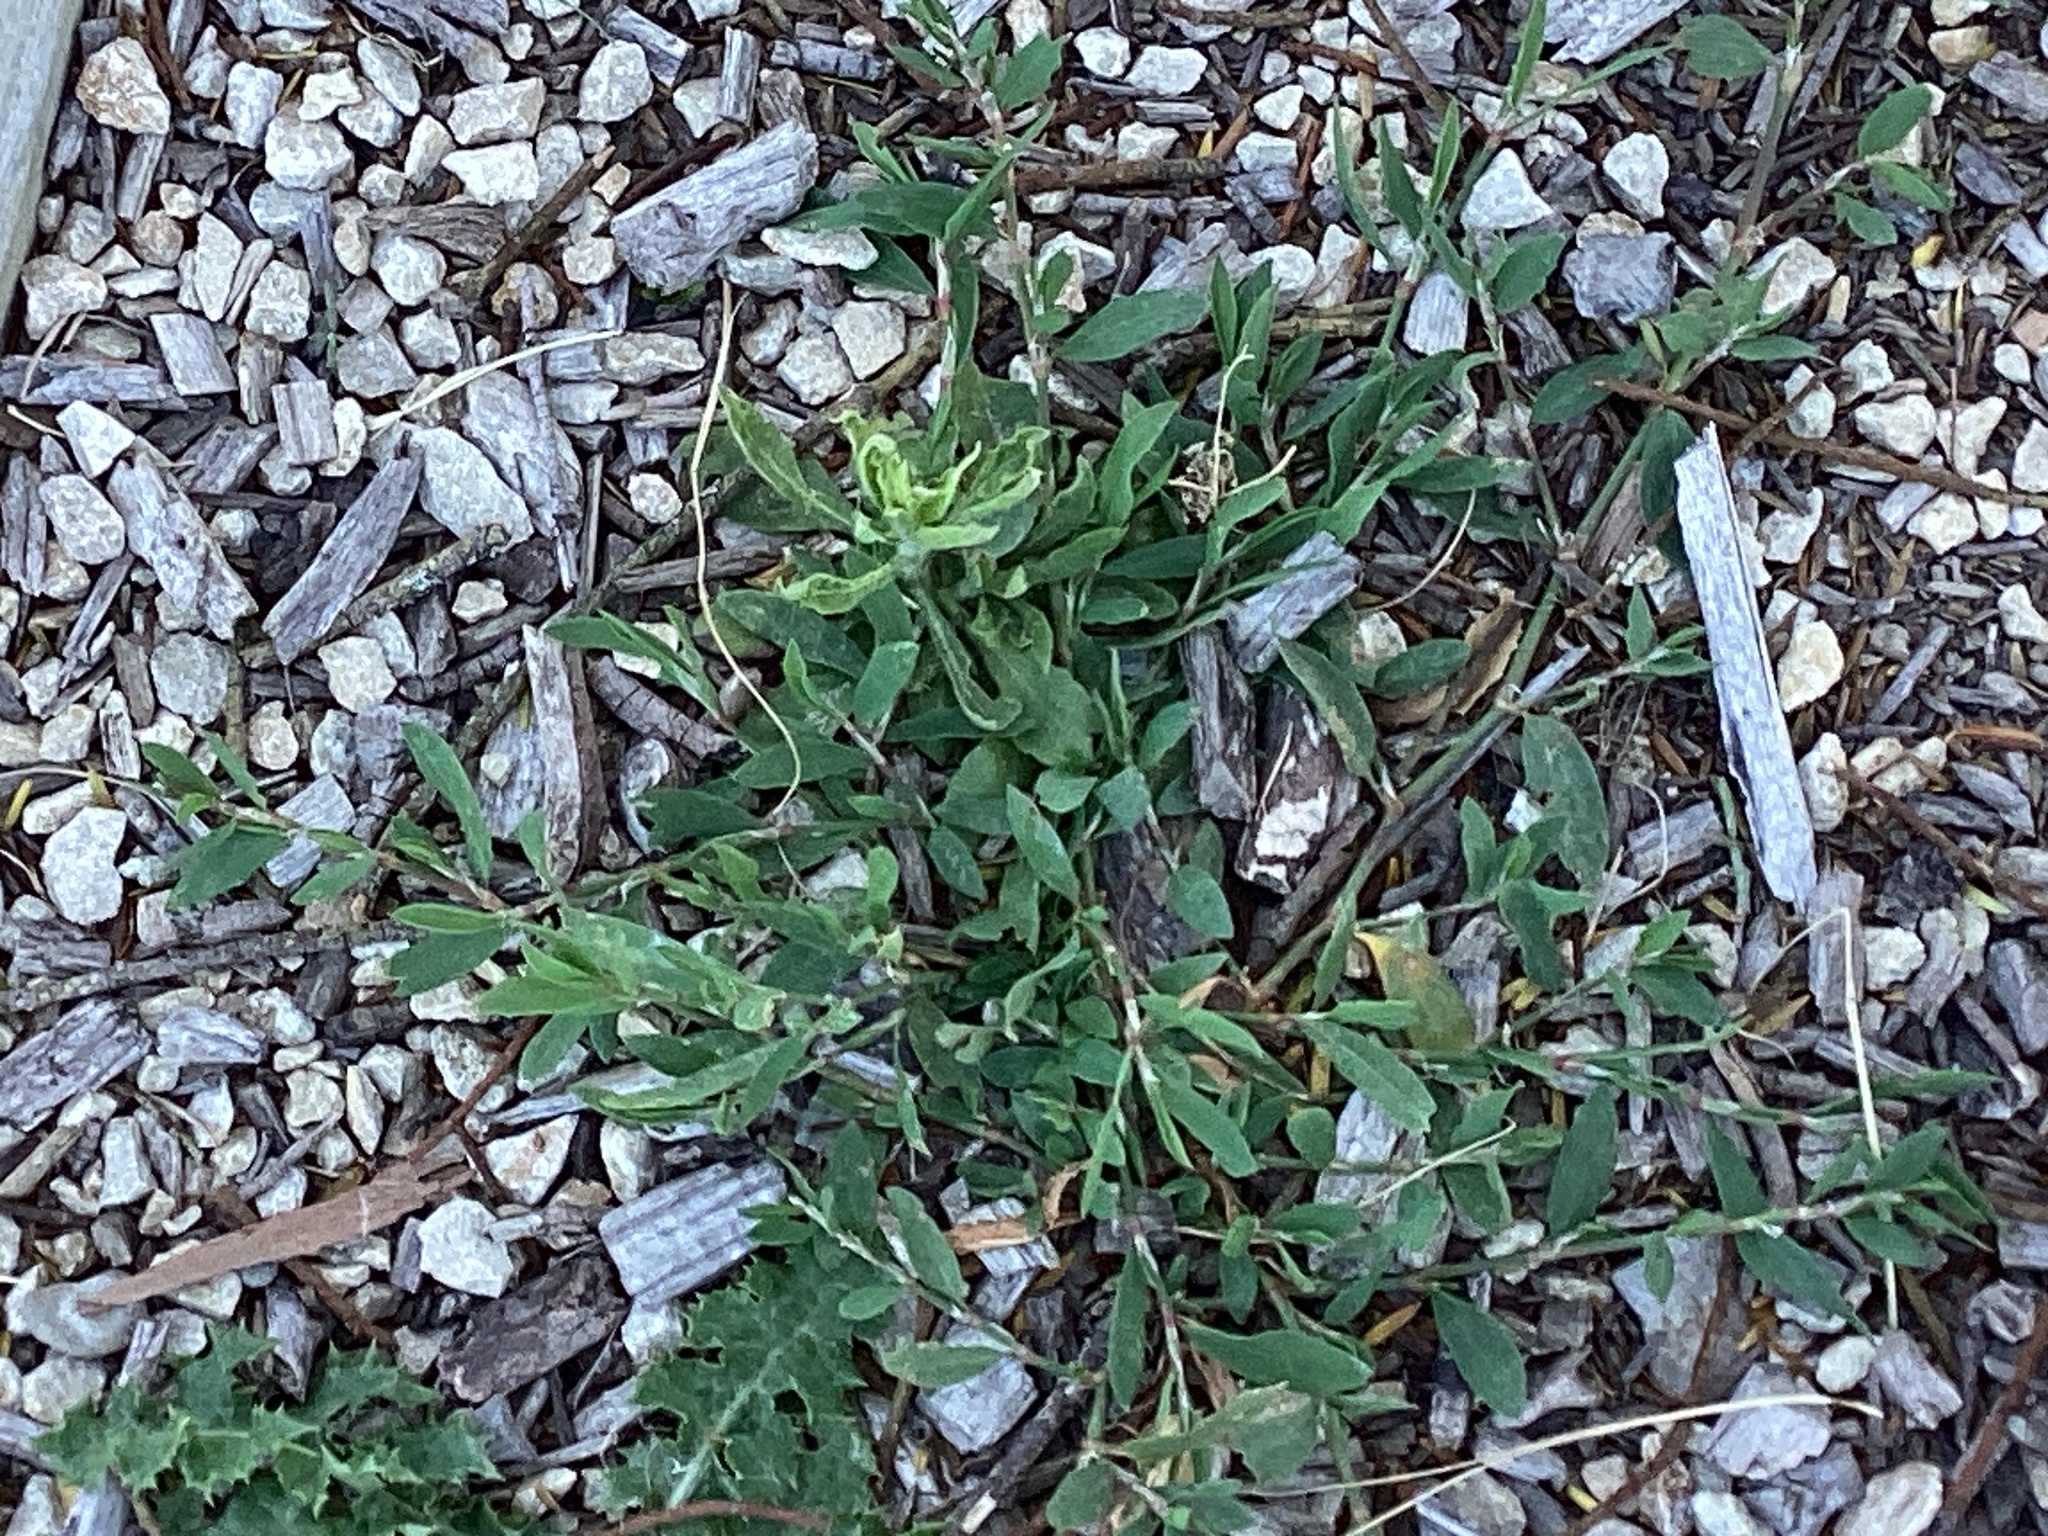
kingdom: Plantae
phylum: Tracheophyta
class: Magnoliopsida
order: Caryophyllales
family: Polygonaceae
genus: Polygonum
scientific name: Polygonum aviculare
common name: Prostrate knotweed
